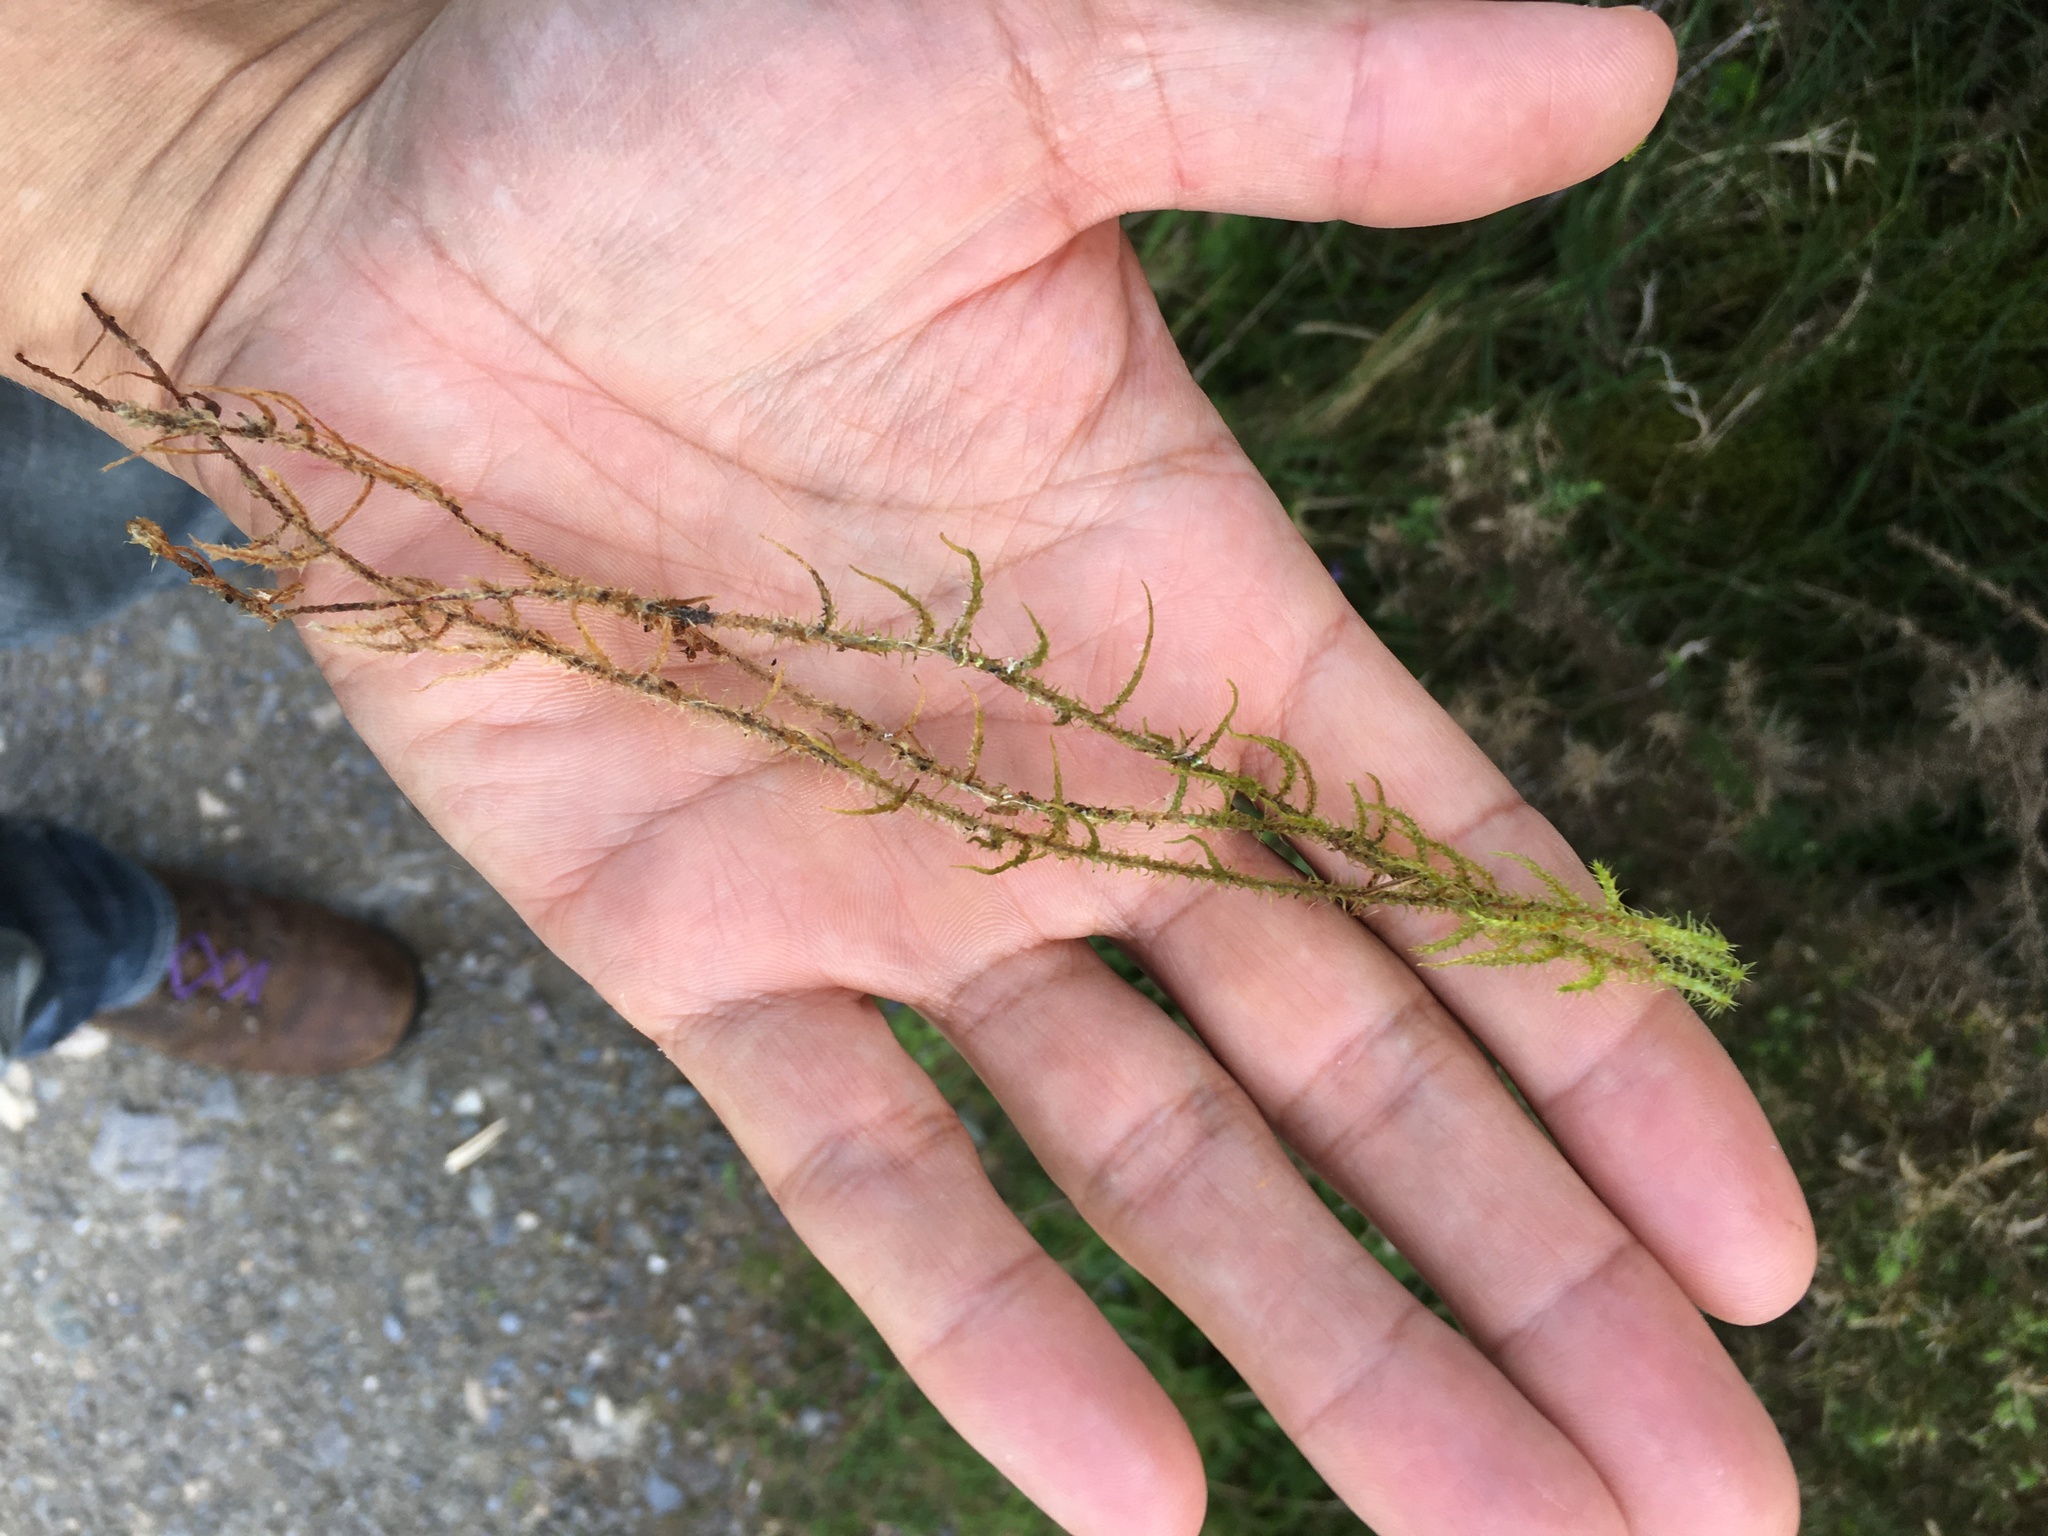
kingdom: Plantae
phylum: Bryophyta
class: Bryopsida
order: Hypnales
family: Hylocomiaceae
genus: Rhytidiadelphus
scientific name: Rhytidiadelphus squarrosus
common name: Springy turf-moss
